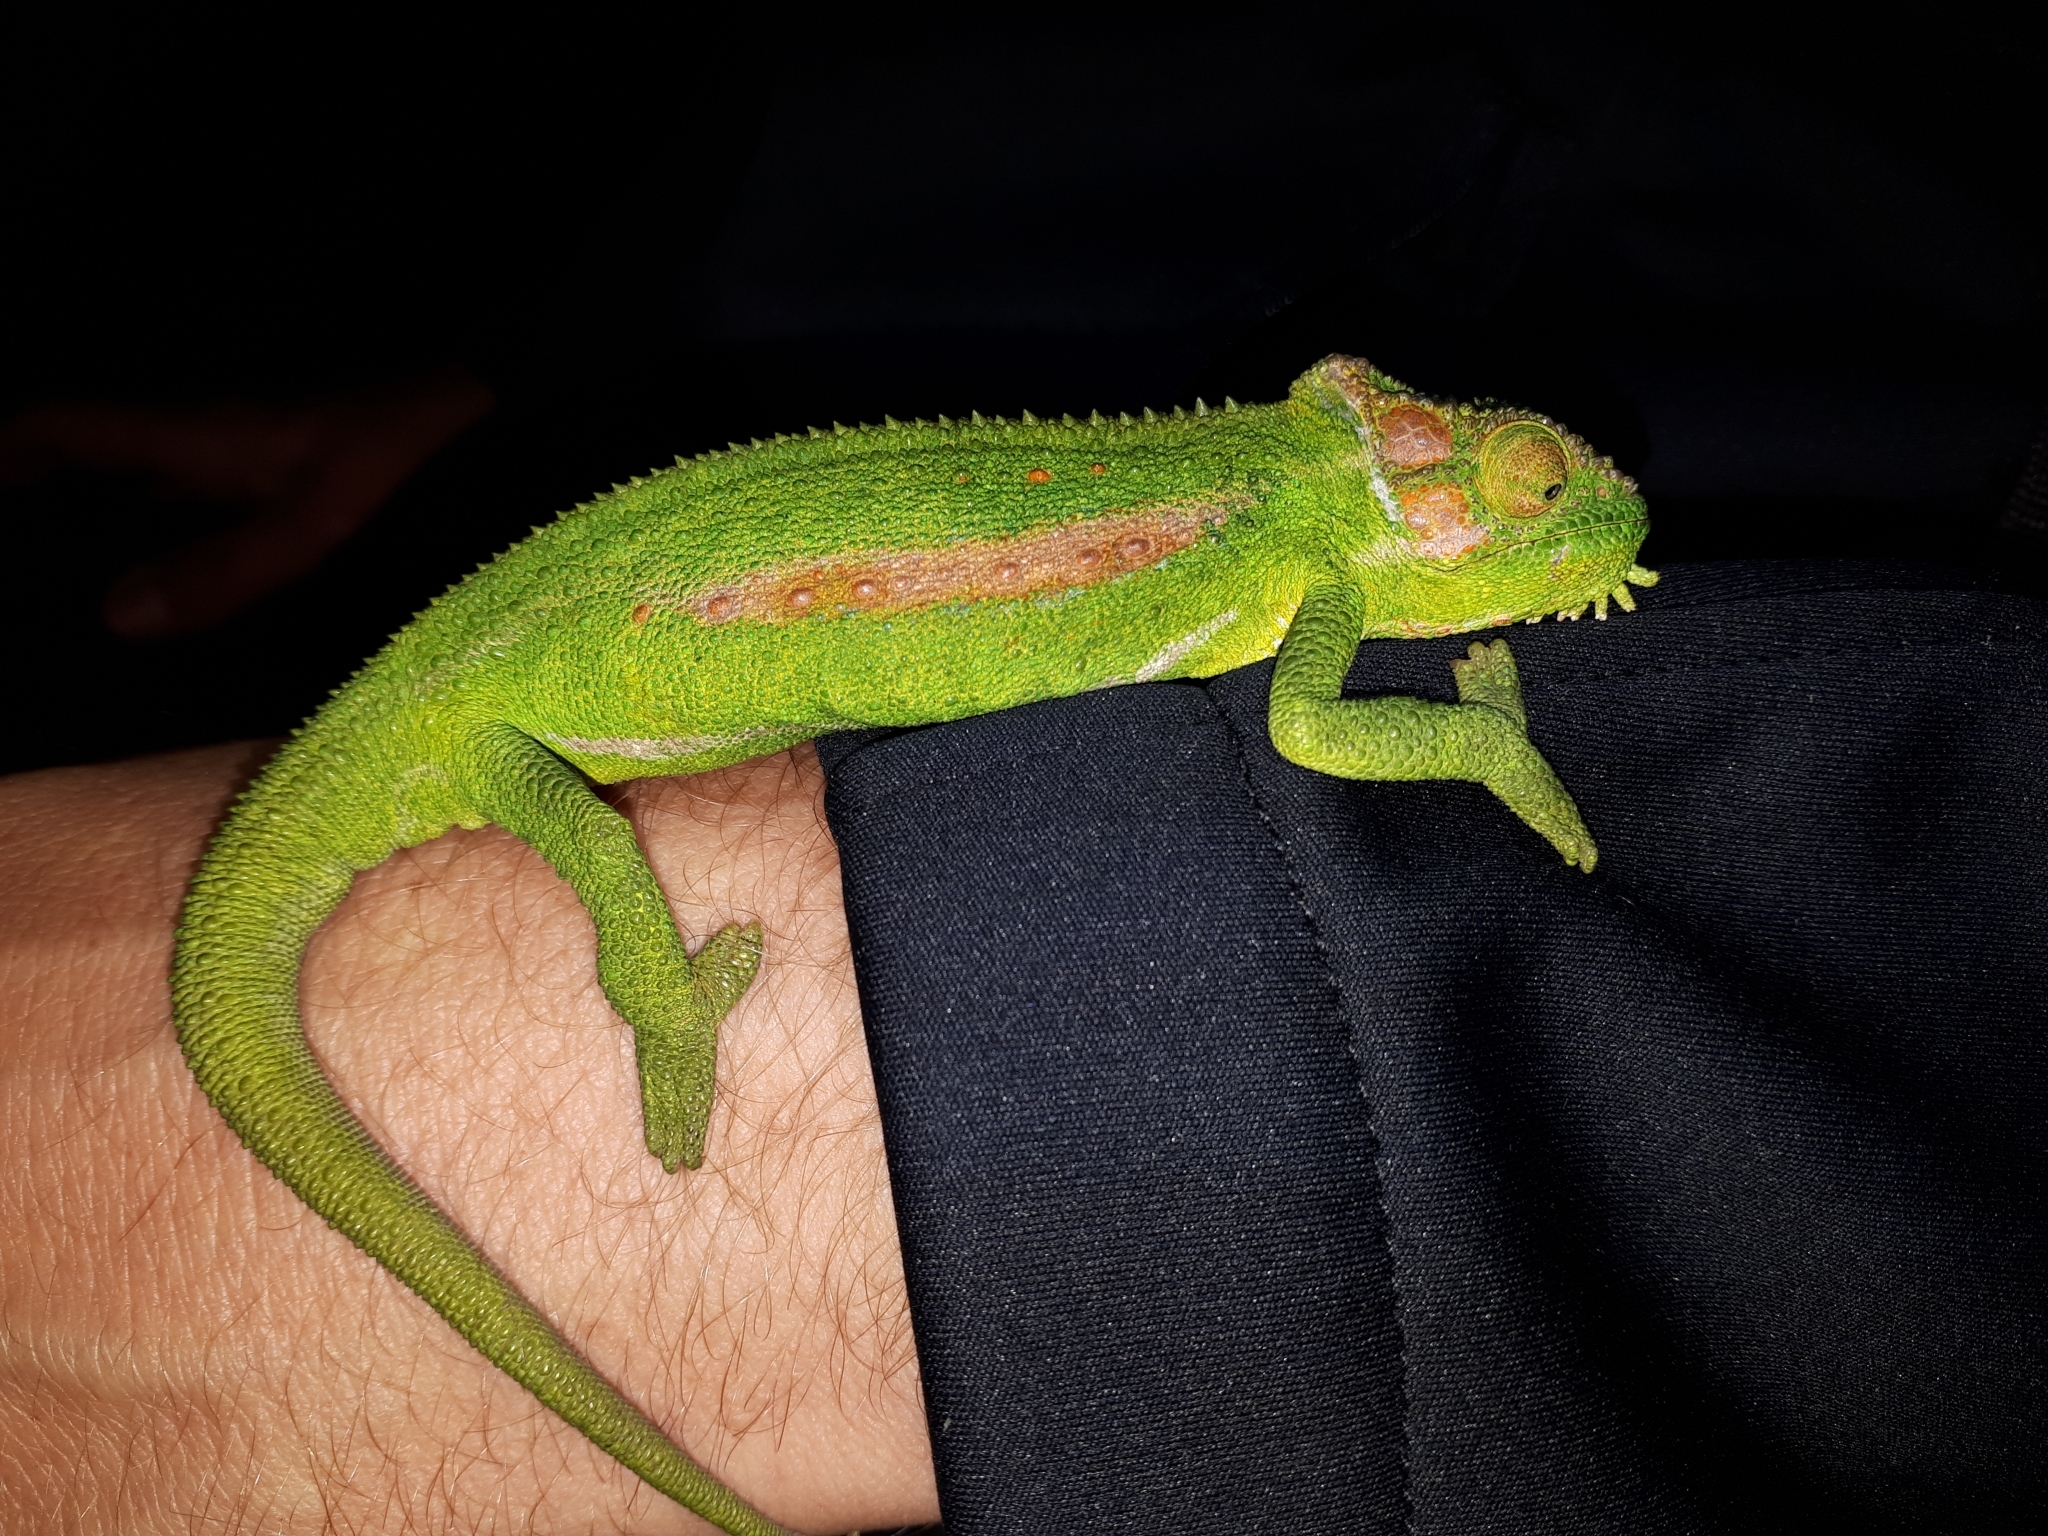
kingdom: Animalia
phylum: Chordata
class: Squamata
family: Chamaeleonidae
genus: Bradypodion
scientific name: Bradypodion pumilum
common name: Cape dwarf chameleon
